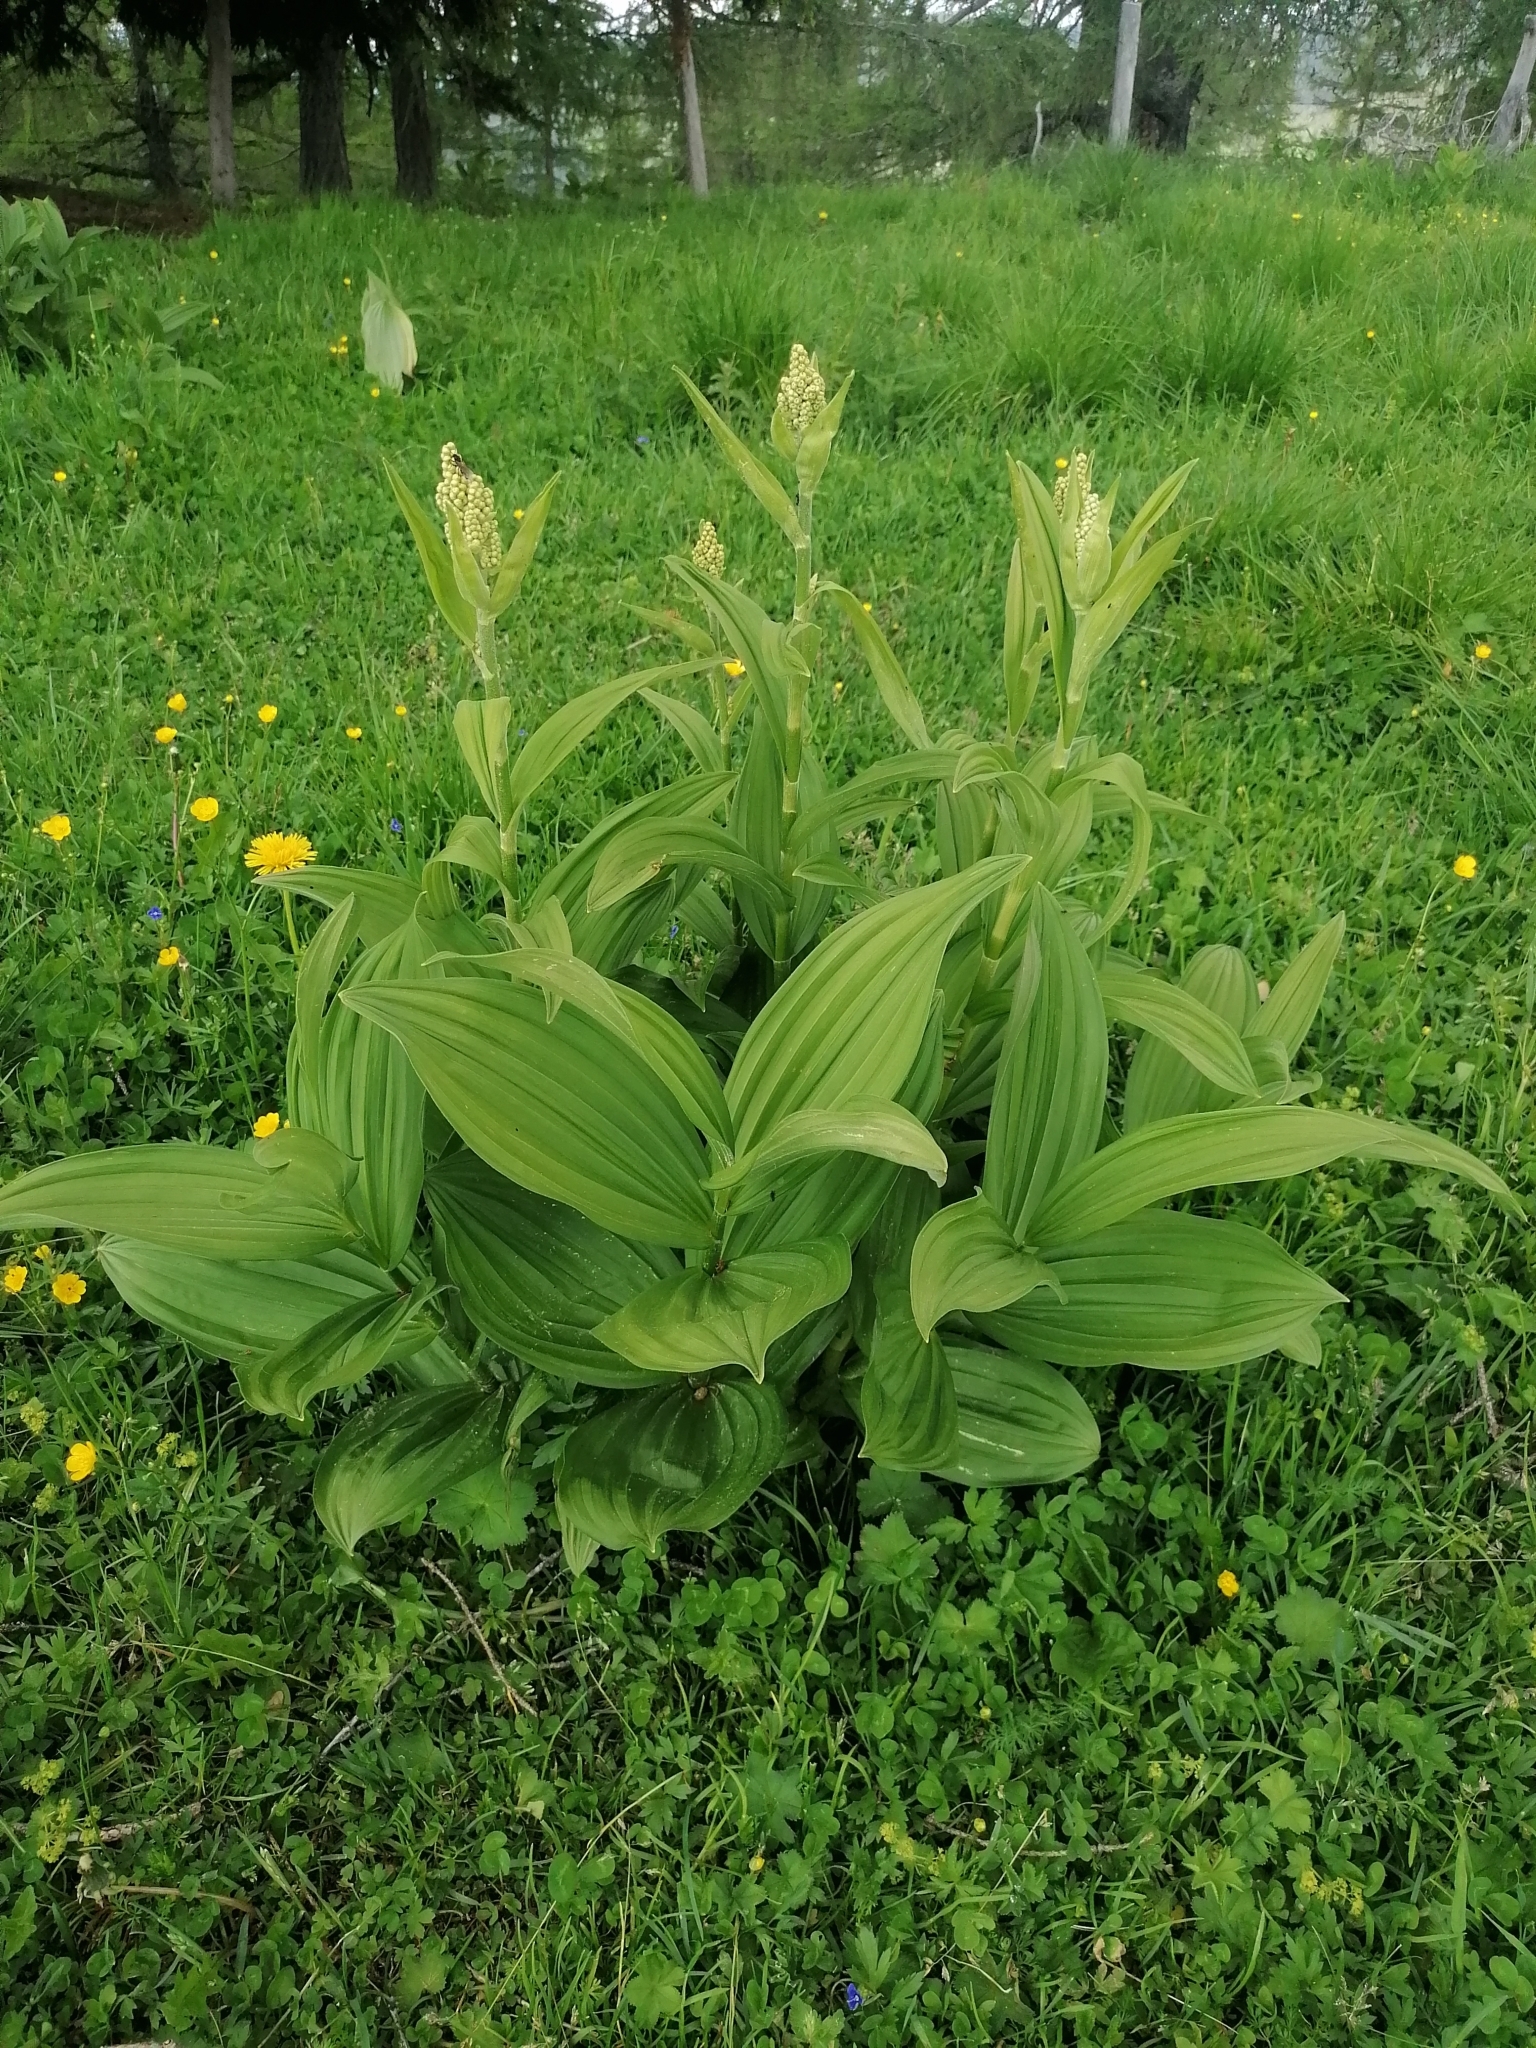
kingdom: Plantae
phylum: Tracheophyta
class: Liliopsida
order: Liliales
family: Melanthiaceae
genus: Veratrum
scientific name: Veratrum album
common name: White veratrum
